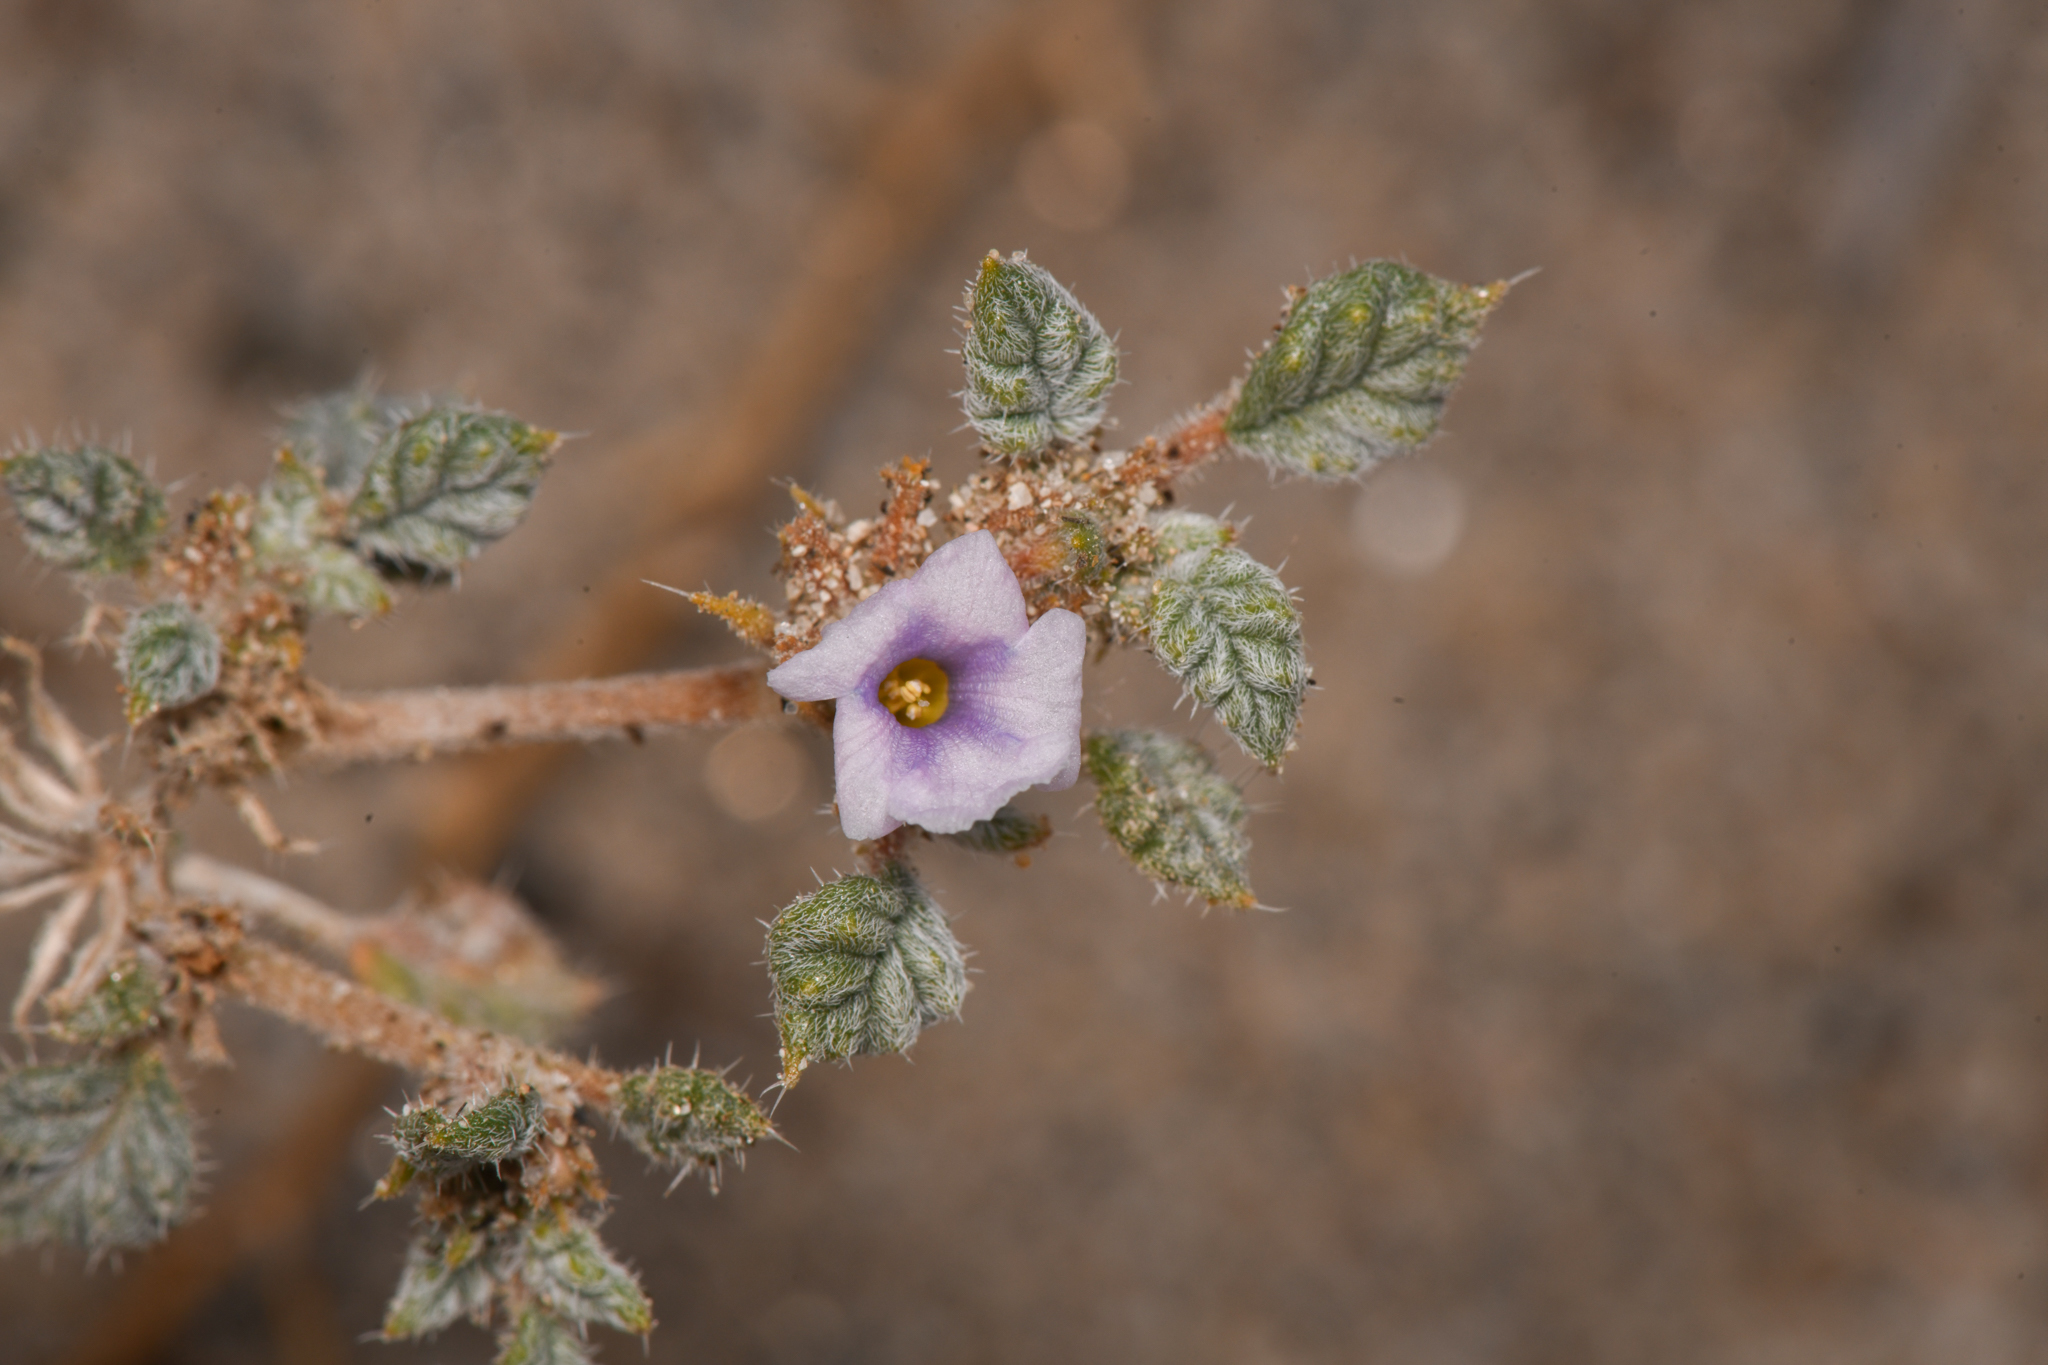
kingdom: Plantae
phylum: Tracheophyta
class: Magnoliopsida
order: Boraginales
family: Ehretiaceae
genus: Tiquilia
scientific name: Tiquilia palmeri
